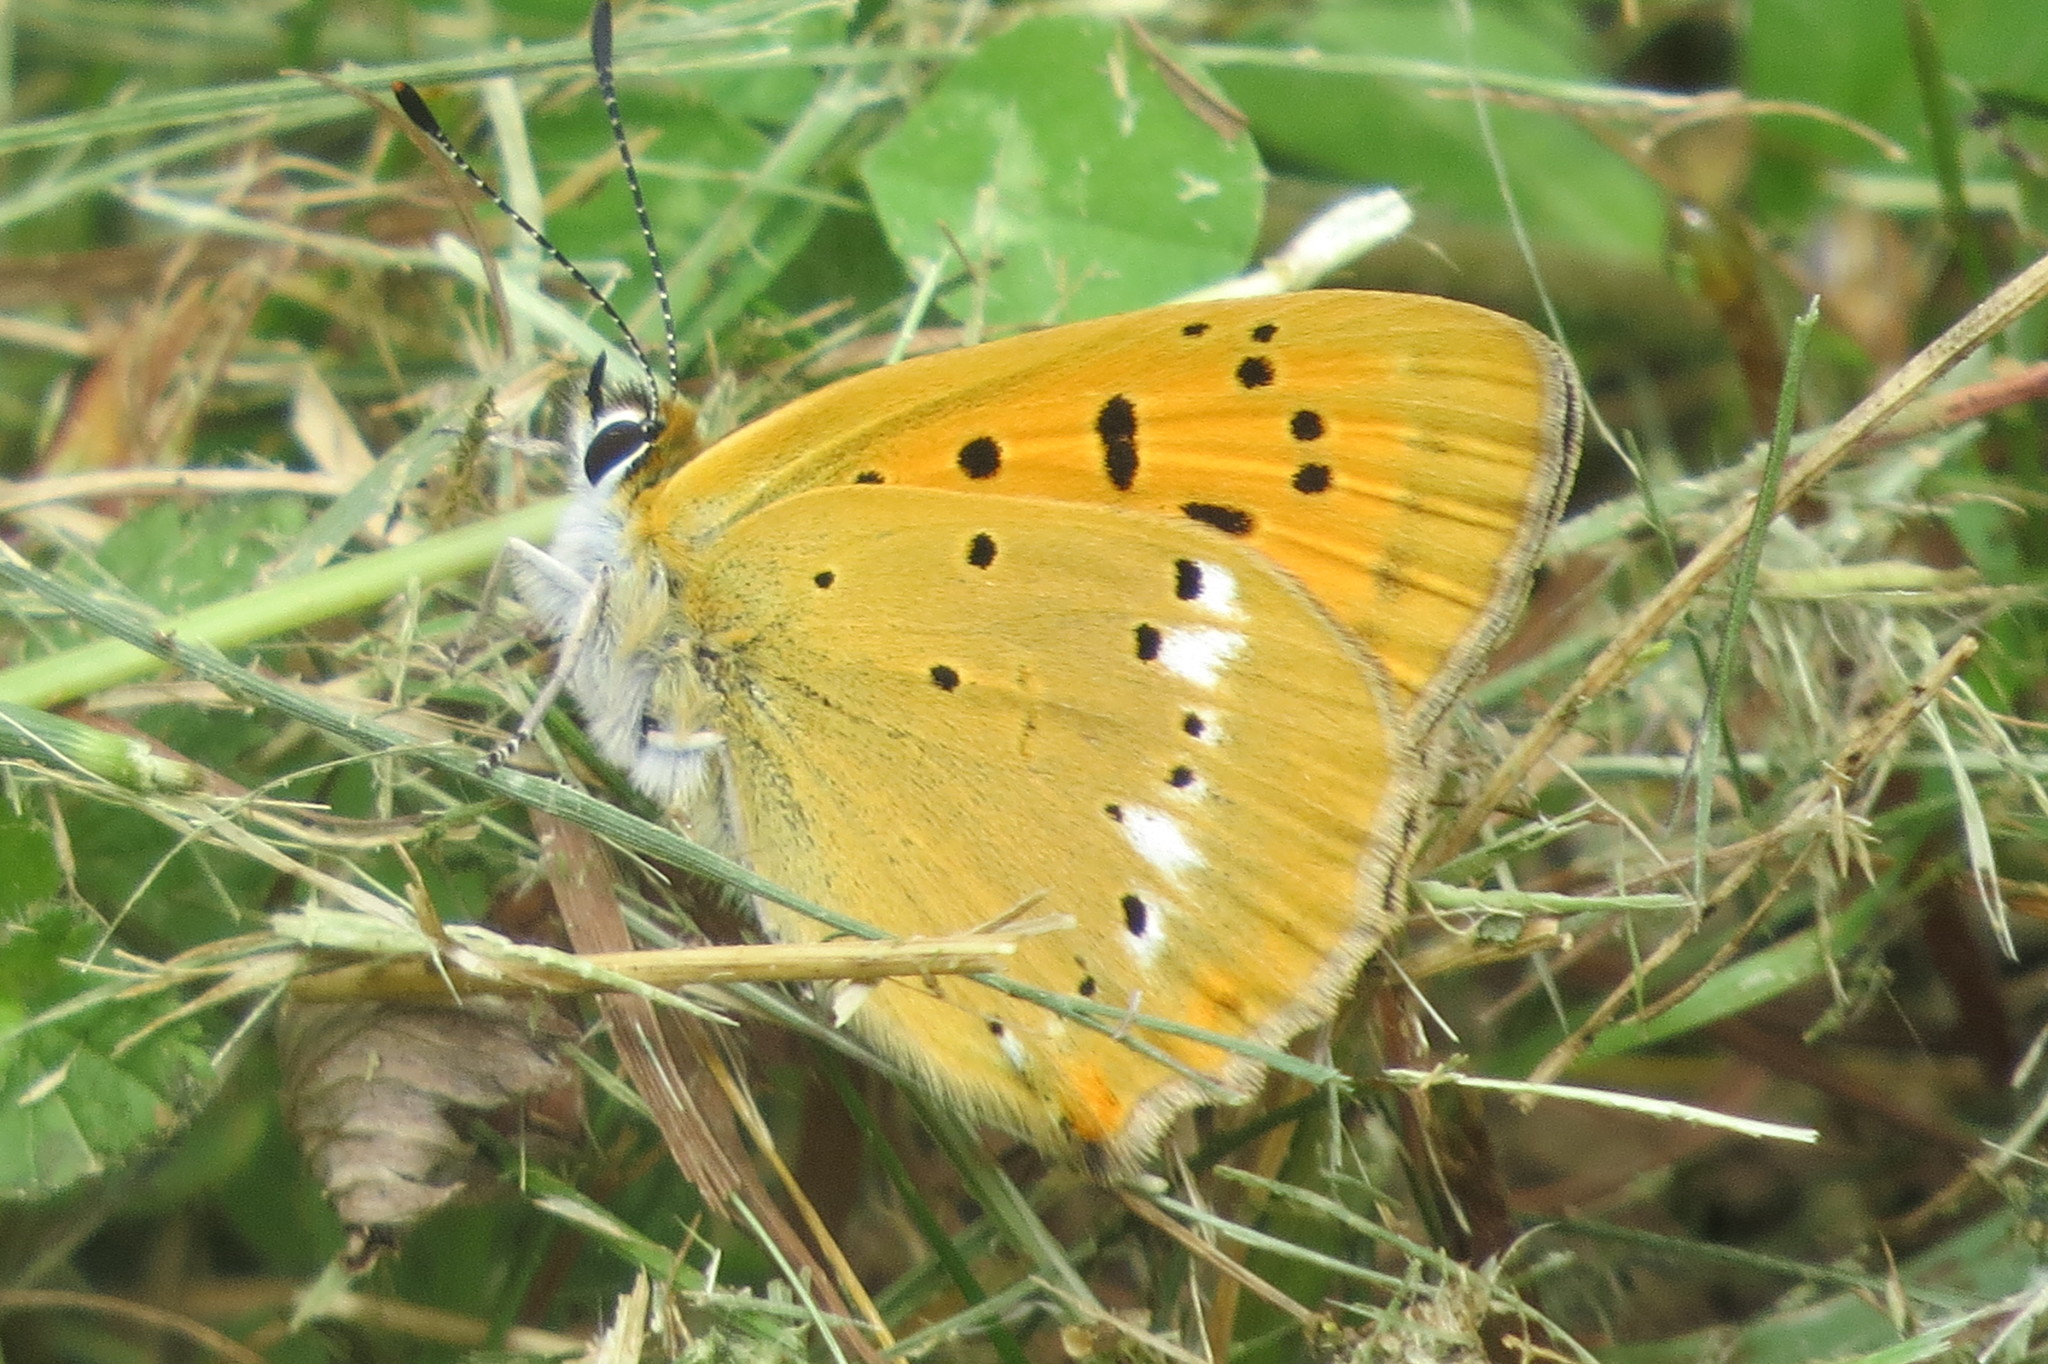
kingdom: Animalia
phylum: Arthropoda
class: Insecta
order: Lepidoptera
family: Lycaenidae
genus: Lycaena
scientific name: Lycaena virgaureae
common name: Scarce copper
